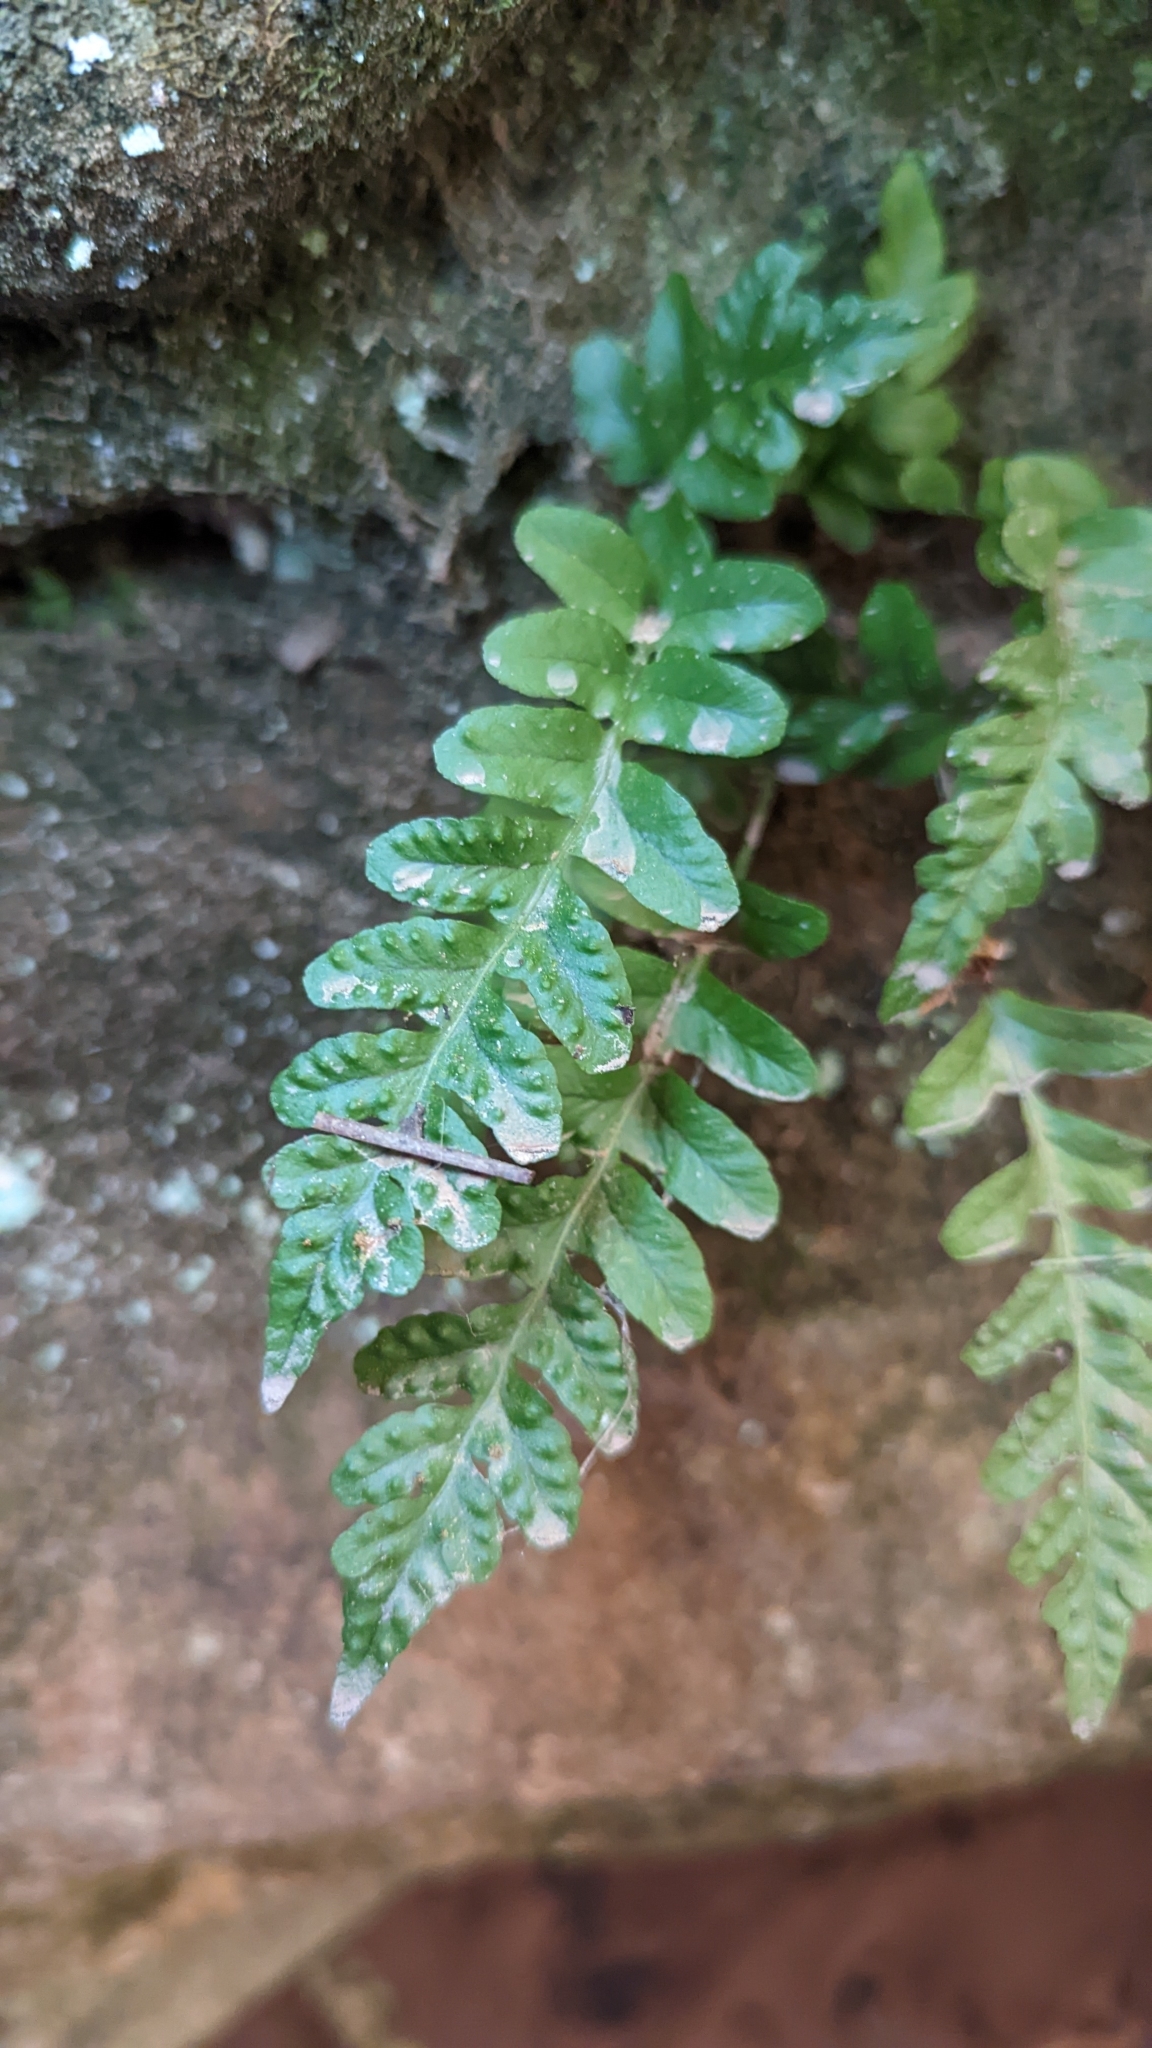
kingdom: Plantae
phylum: Tracheophyta
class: Polypodiopsida
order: Polypodiales
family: Polypodiaceae
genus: Polypodium
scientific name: Polypodium hesperium
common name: Western polypody
